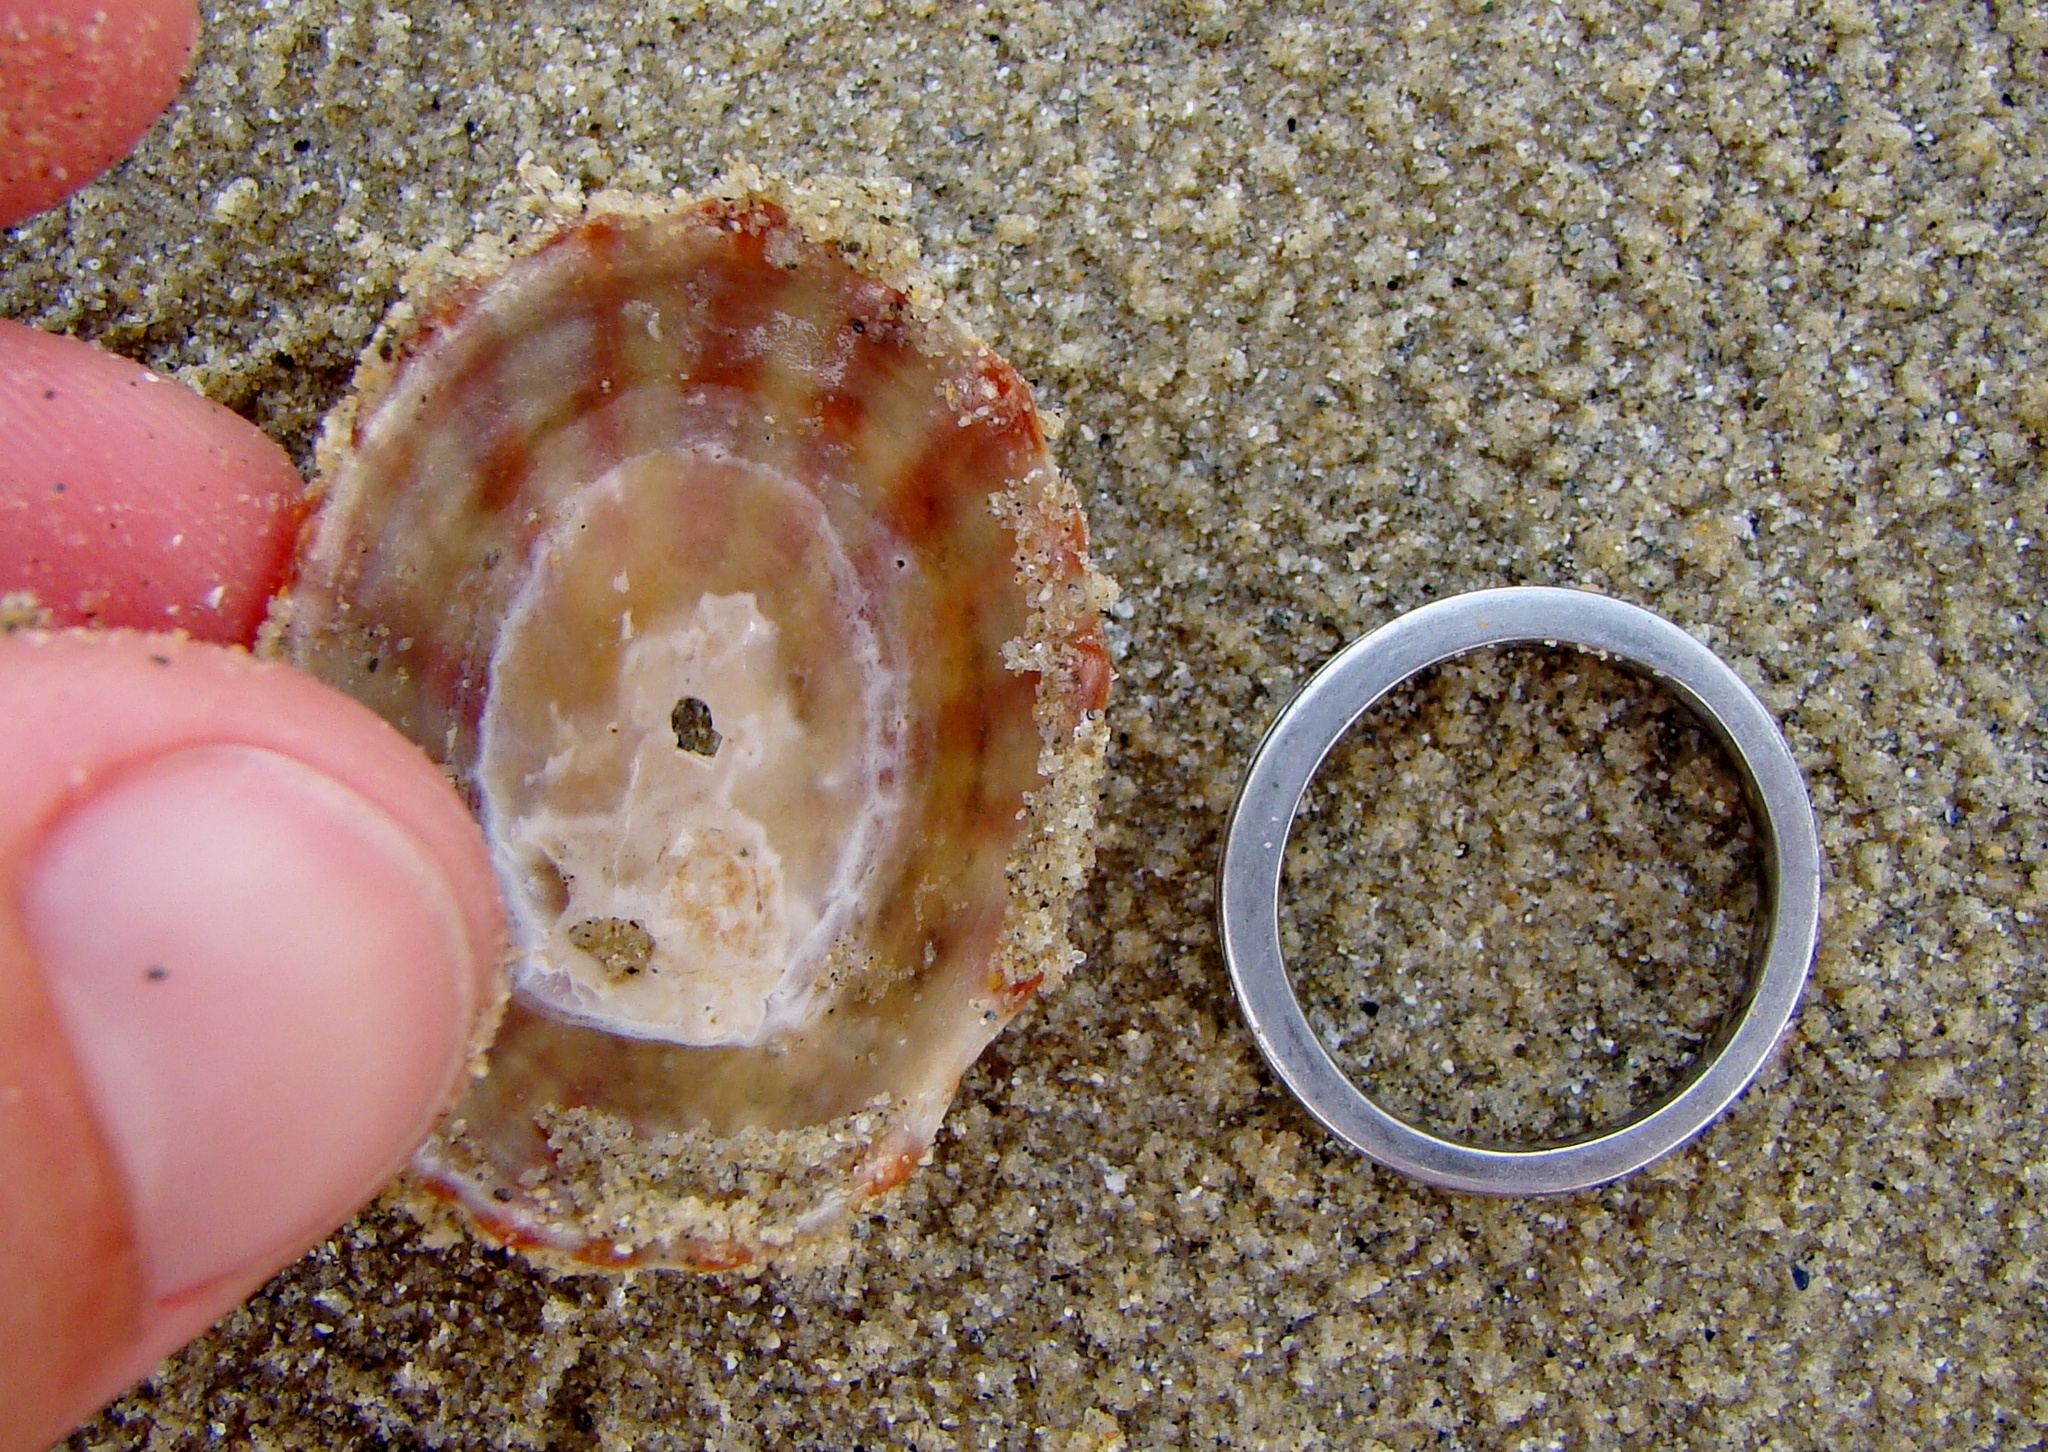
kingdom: Animalia
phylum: Mollusca
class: Gastropoda
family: Nacellidae
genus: Cellana
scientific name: Cellana strigilis
